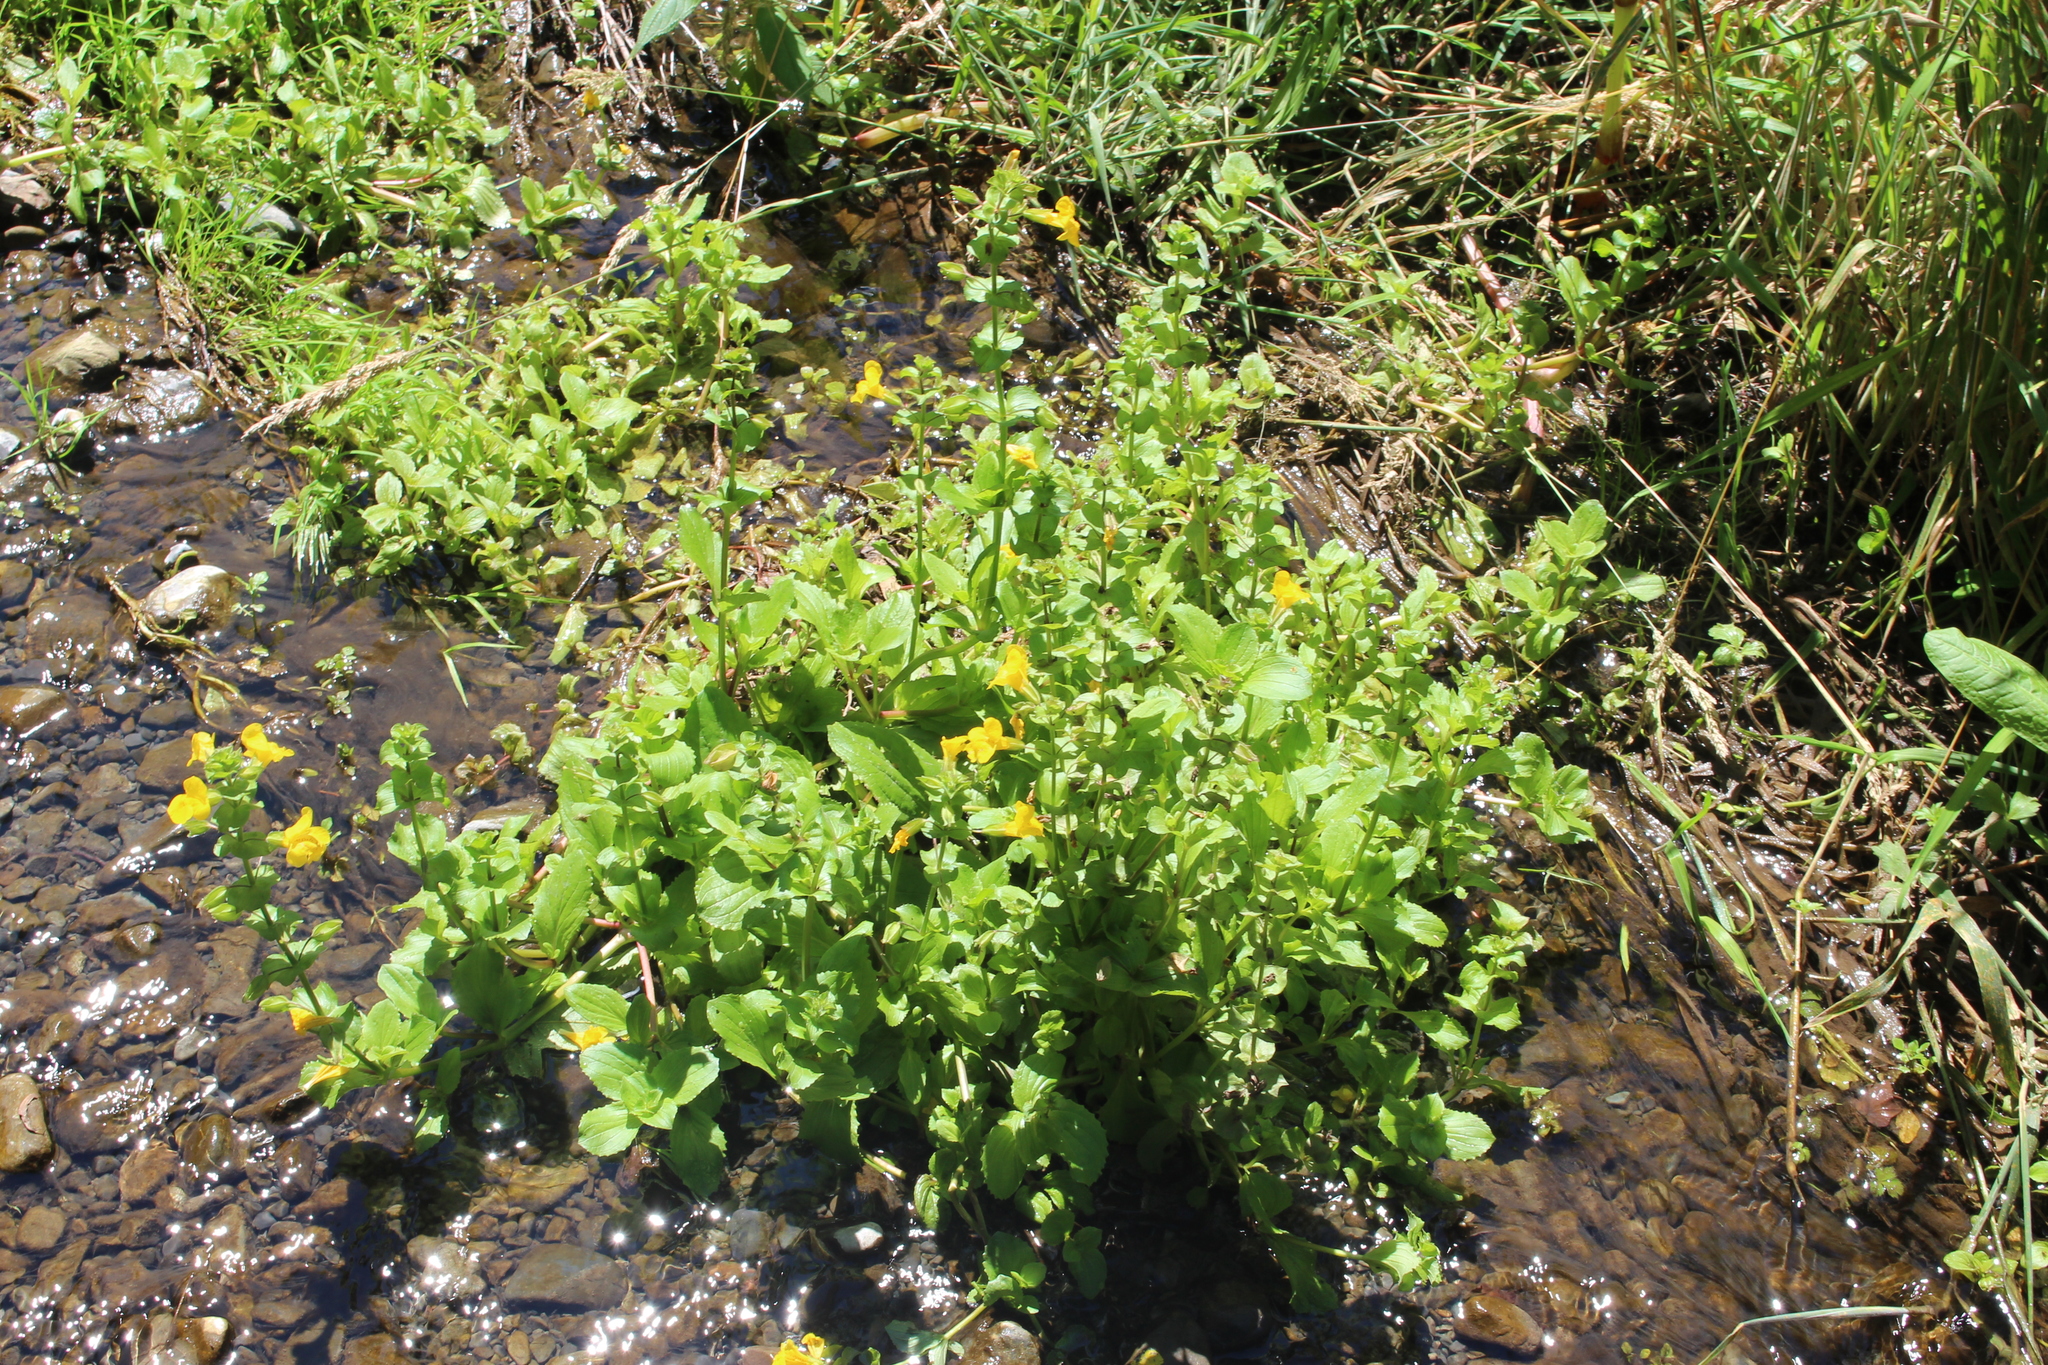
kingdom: Plantae
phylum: Tracheophyta
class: Magnoliopsida
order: Lamiales
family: Phrymaceae
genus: Erythranthe
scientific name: Erythranthe guttata
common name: Monkeyflower
